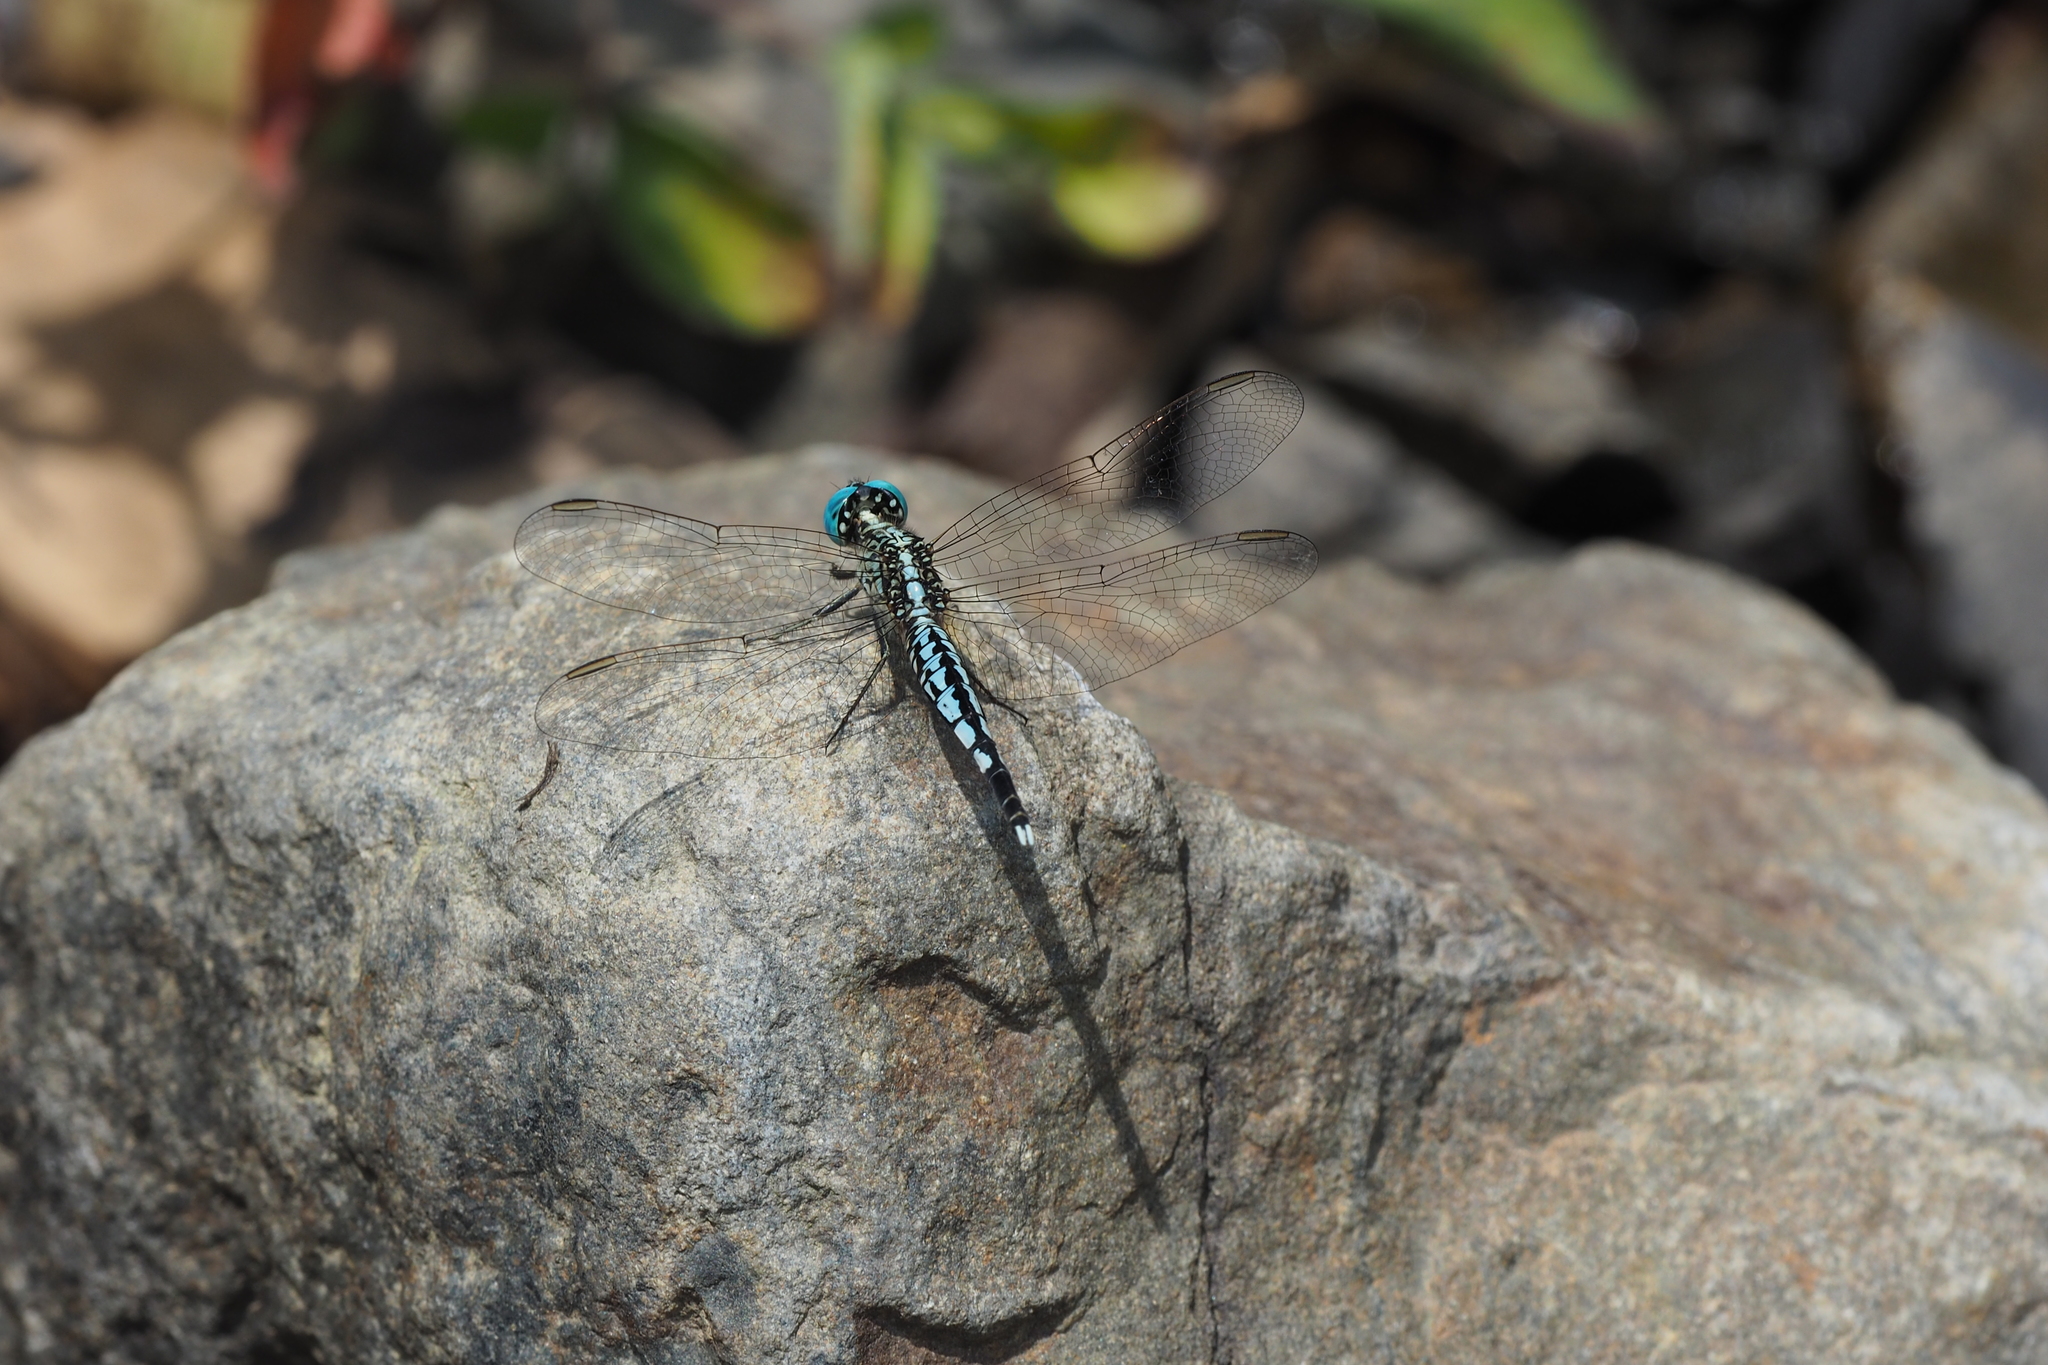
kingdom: Animalia
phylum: Arthropoda
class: Insecta
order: Odonata
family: Libellulidae
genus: Acisoma
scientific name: Acisoma panorpoides
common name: Asian pintail
